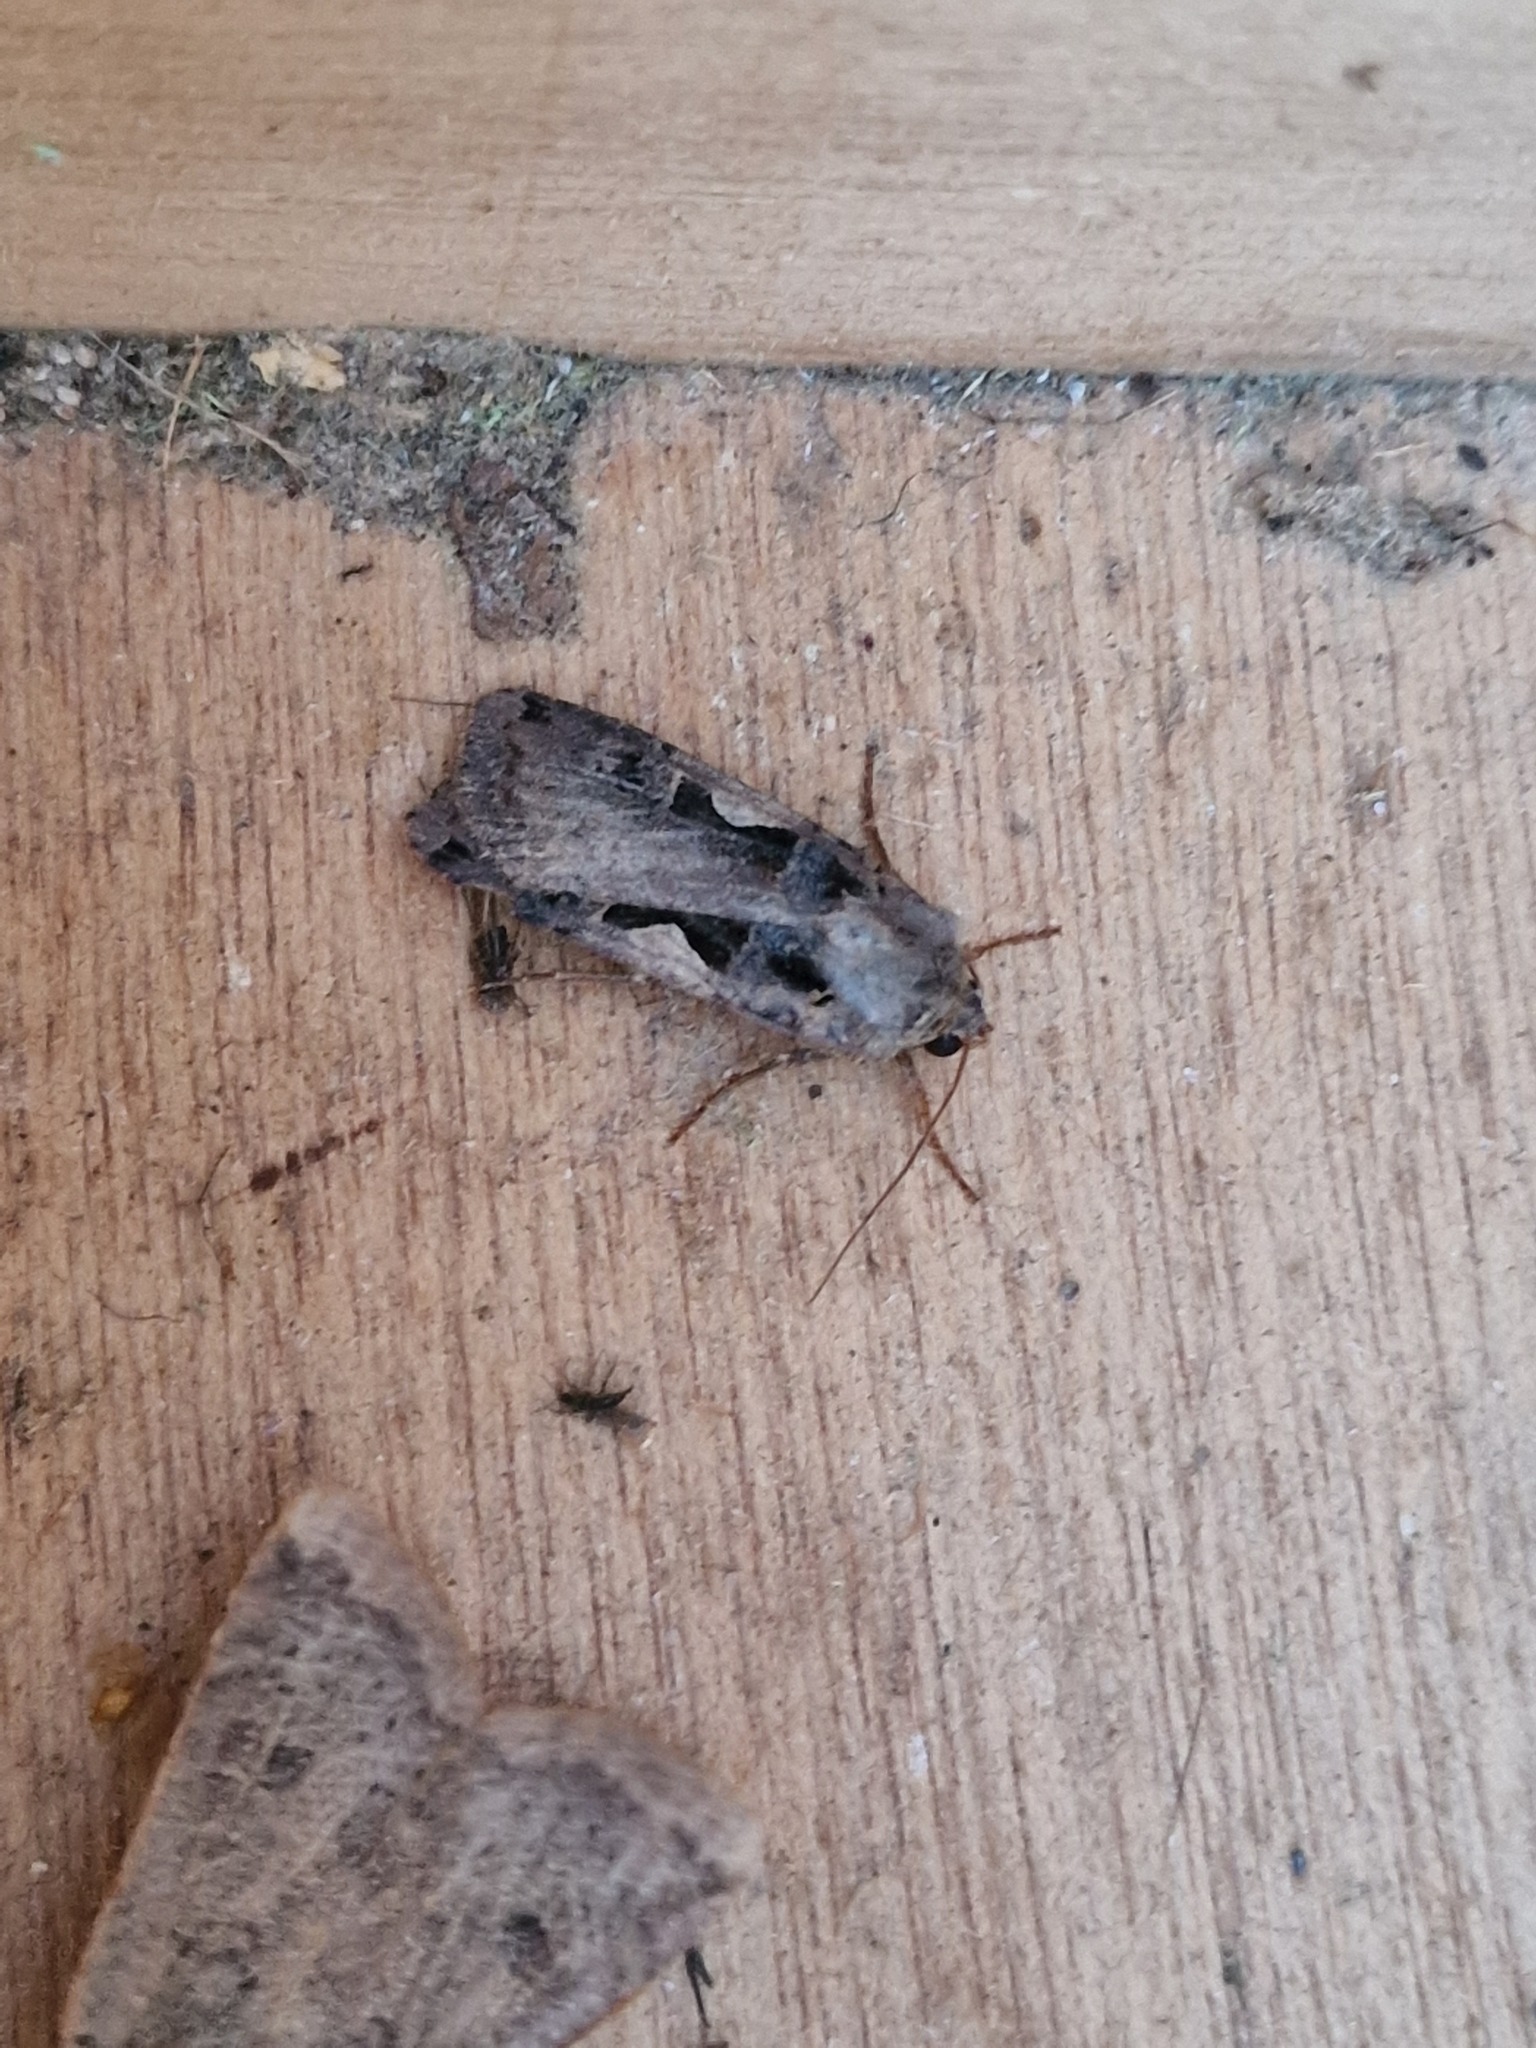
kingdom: Animalia
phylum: Arthropoda
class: Insecta
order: Lepidoptera
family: Noctuidae
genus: Xestia
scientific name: Xestia c-nigrum
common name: Setaceous hebrew character
